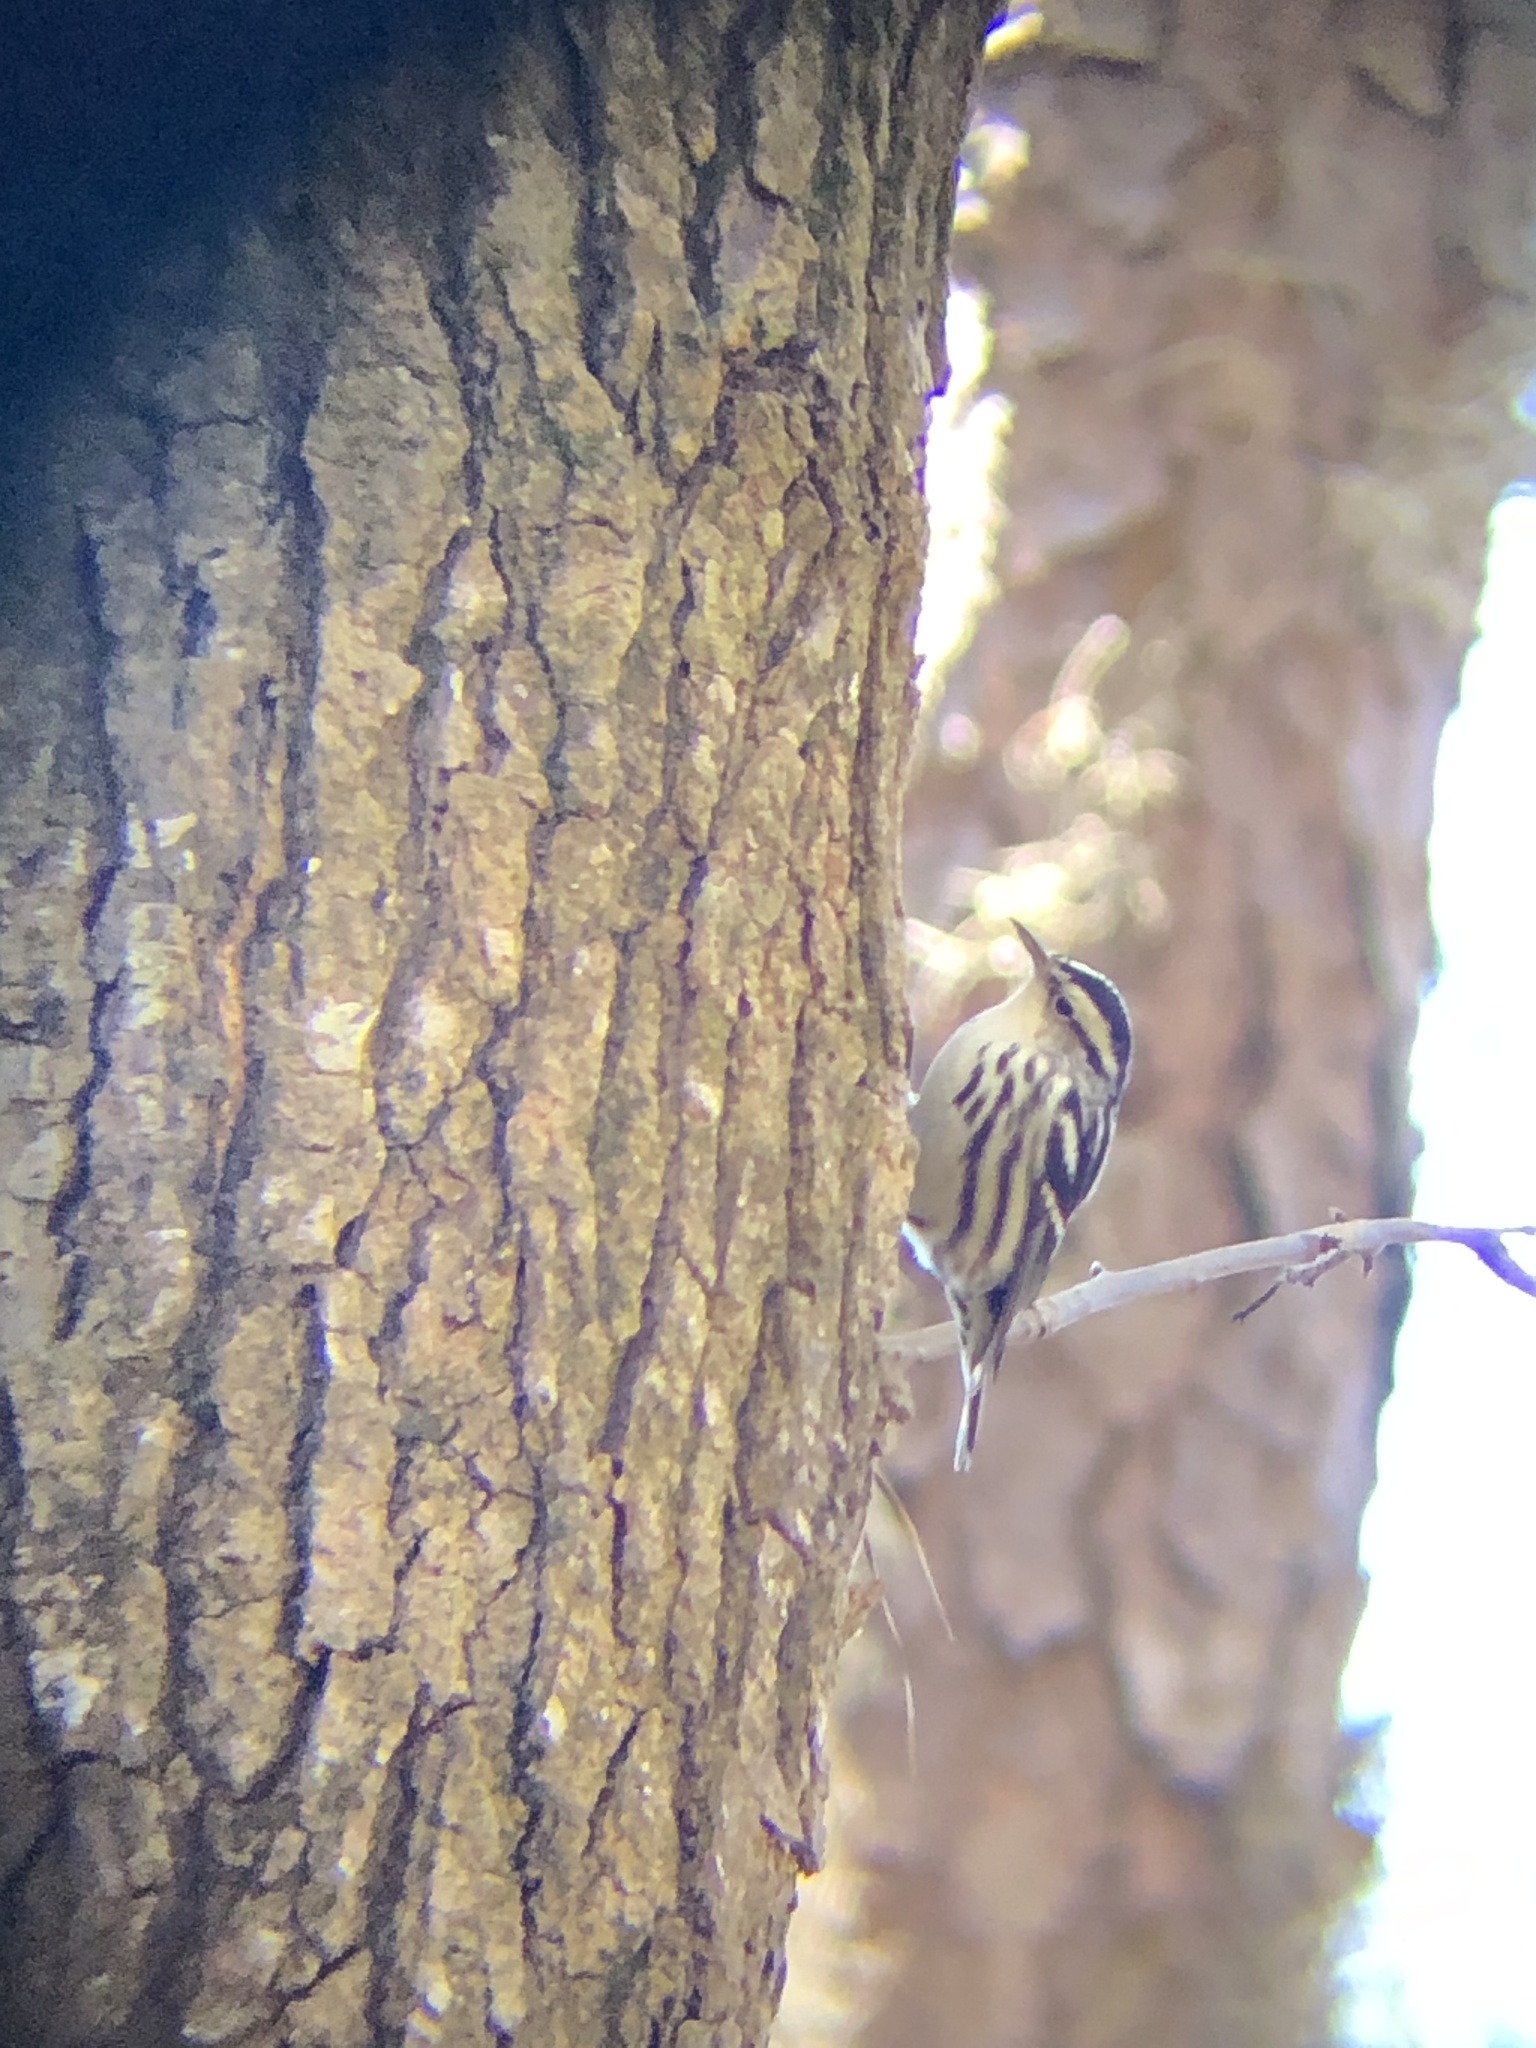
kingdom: Animalia
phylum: Chordata
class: Aves
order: Passeriformes
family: Parulidae
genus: Mniotilta
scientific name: Mniotilta varia
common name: Black-and-white warbler
